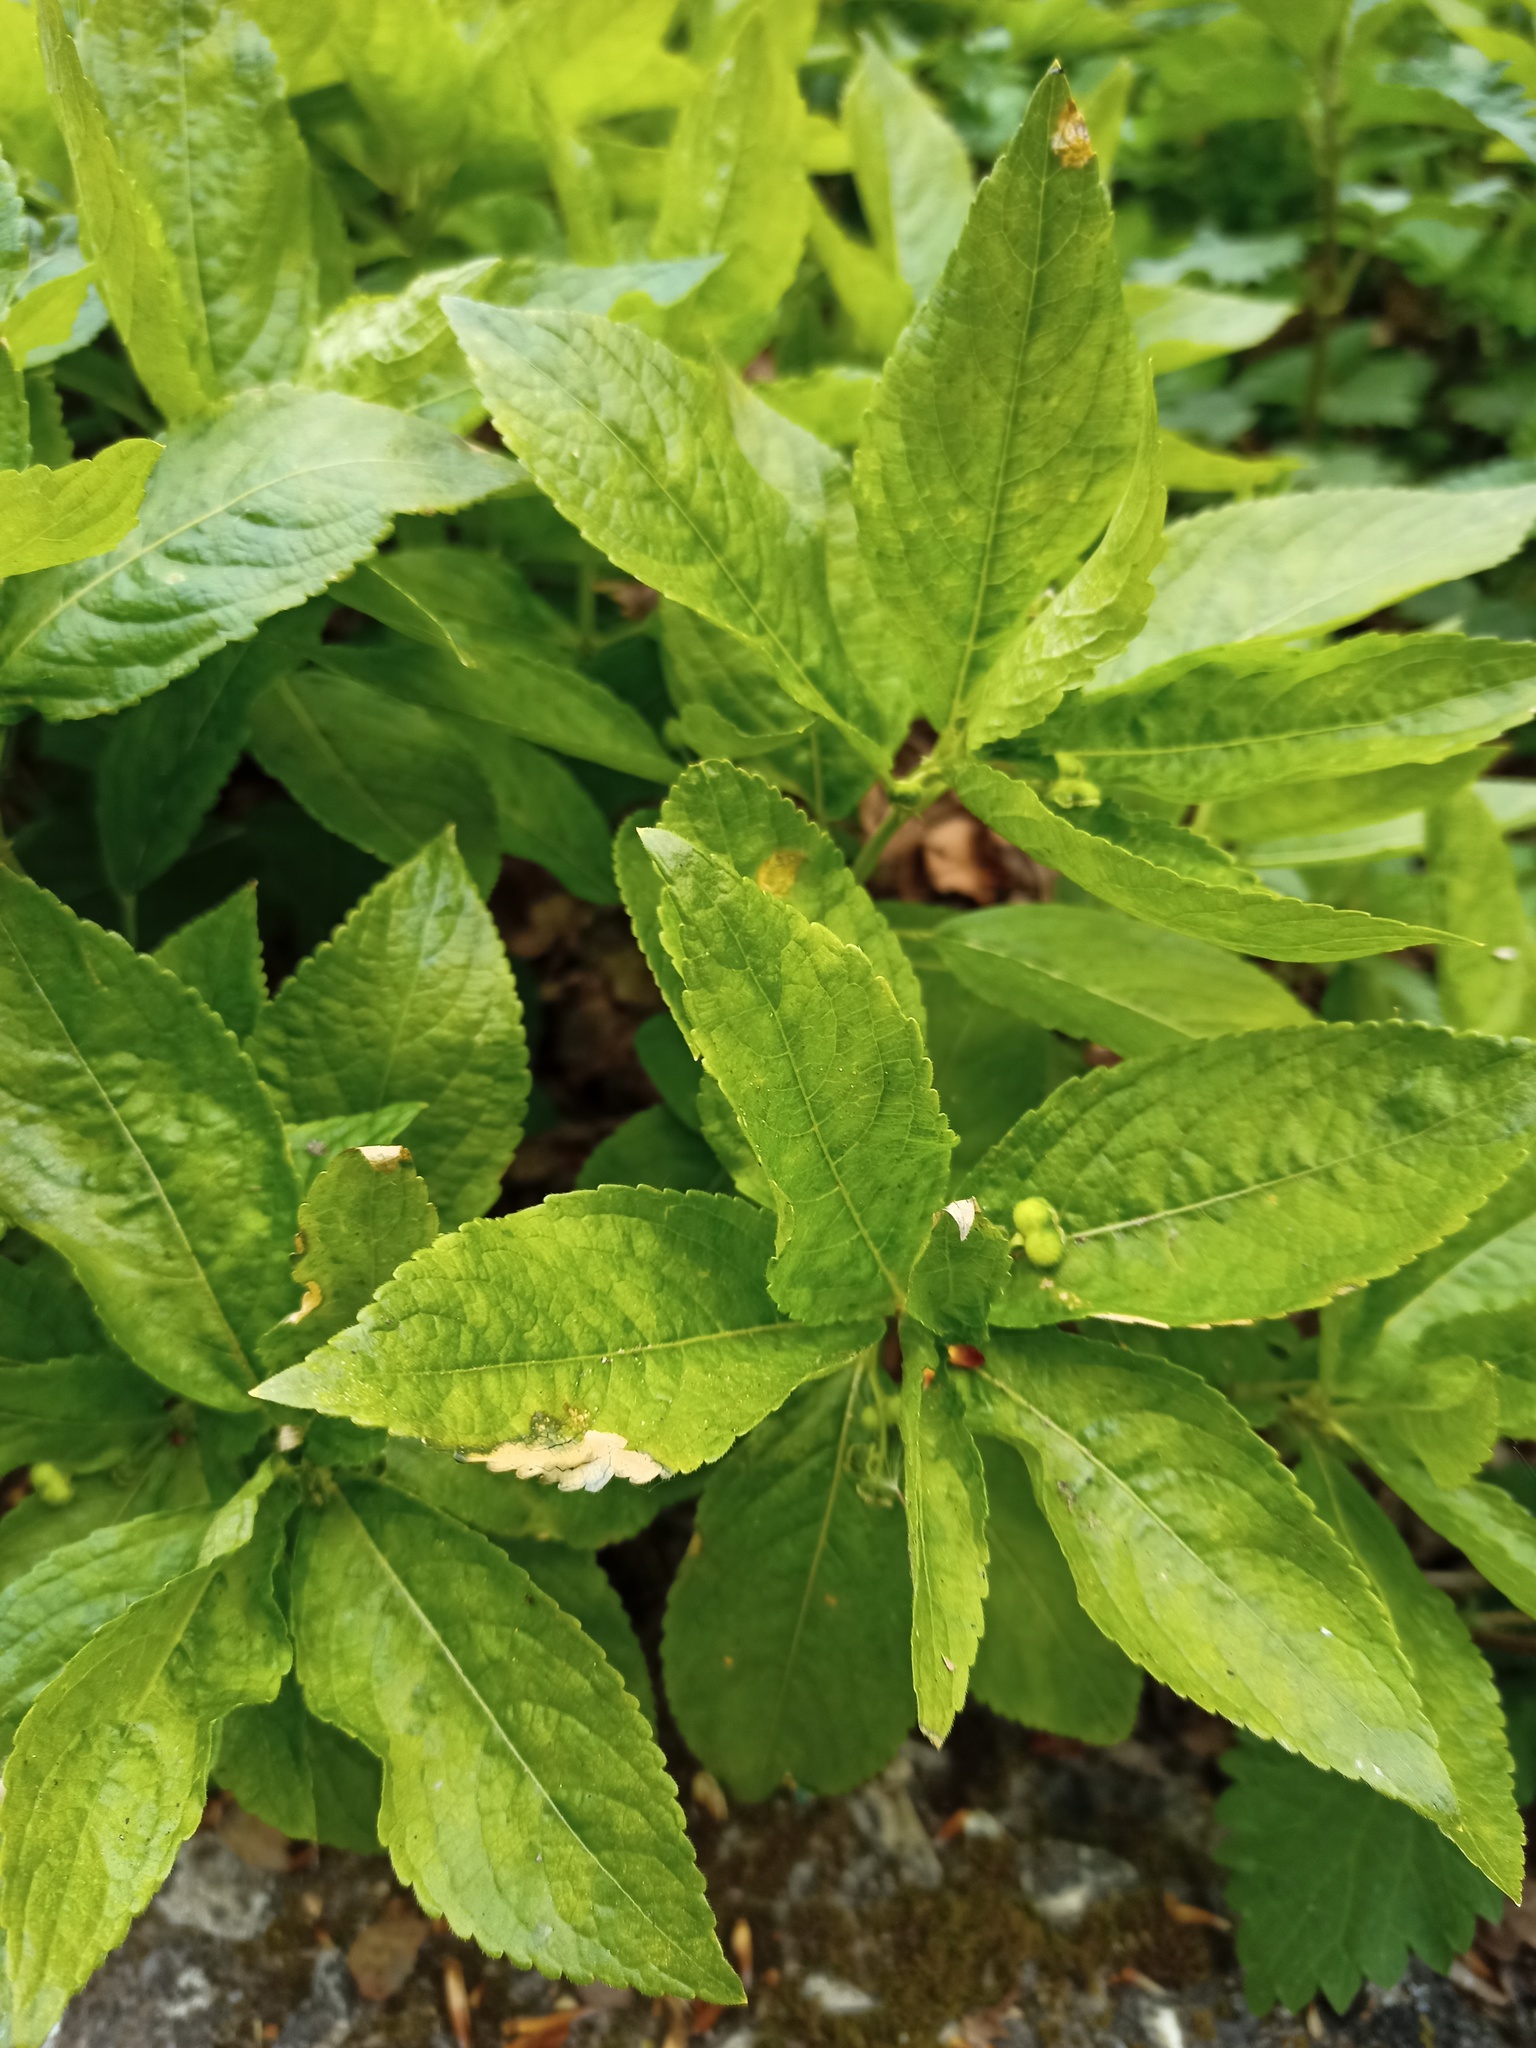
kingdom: Plantae
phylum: Tracheophyta
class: Magnoliopsida
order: Malpighiales
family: Euphorbiaceae
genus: Mercurialis
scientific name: Mercurialis perennis
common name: Dog mercury
